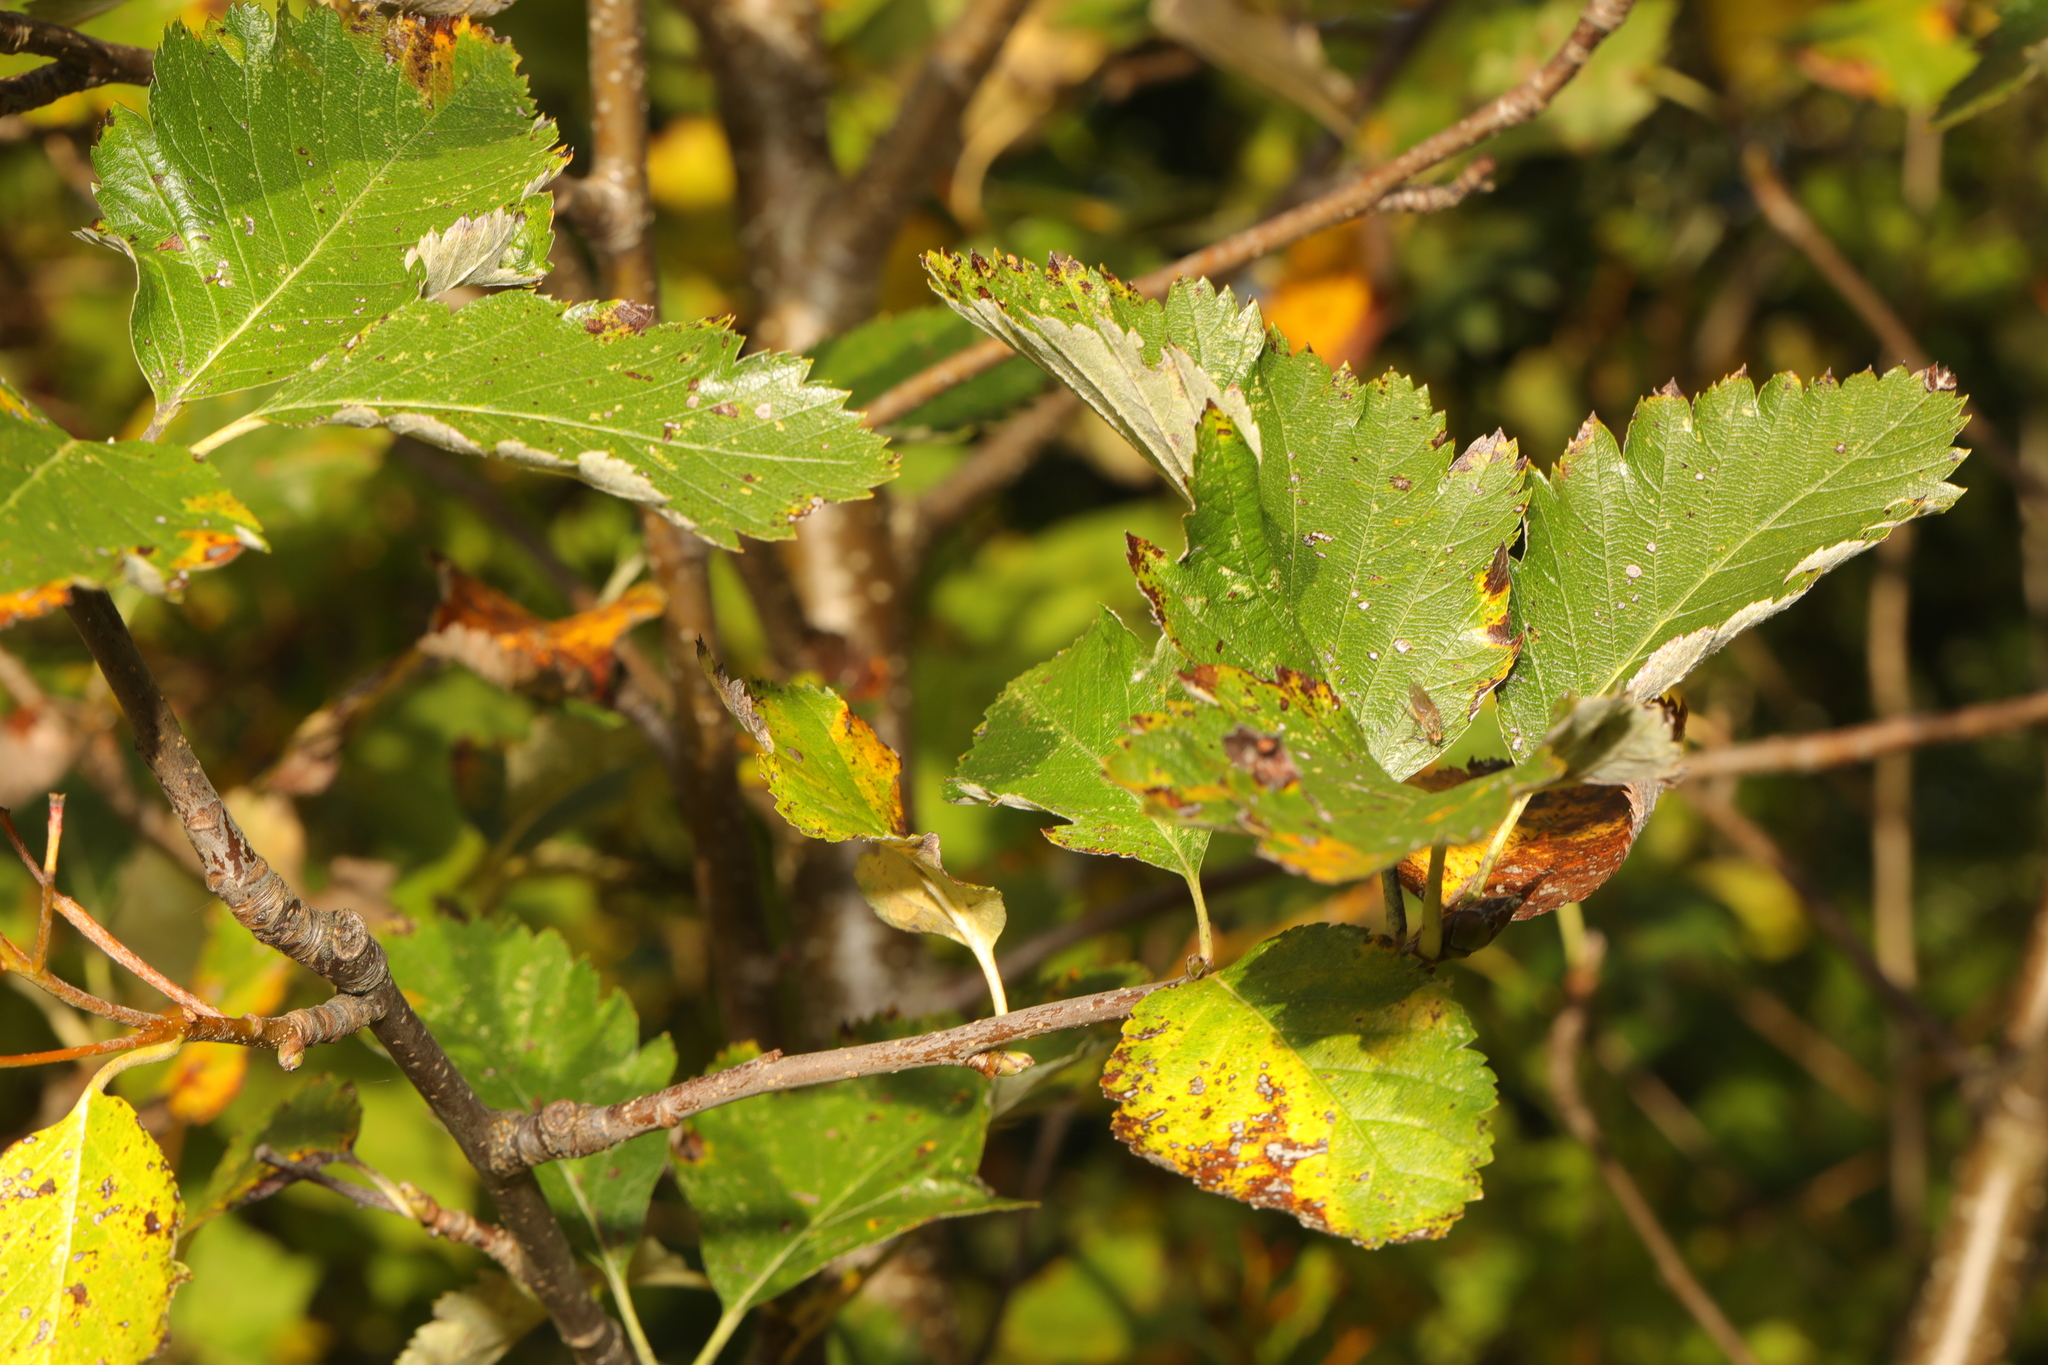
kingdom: Plantae
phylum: Tracheophyta
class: Magnoliopsida
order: Rosales
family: Rosaceae
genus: Scandosorbus
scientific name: Scandosorbus intermedia
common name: Swedish whitebeam
